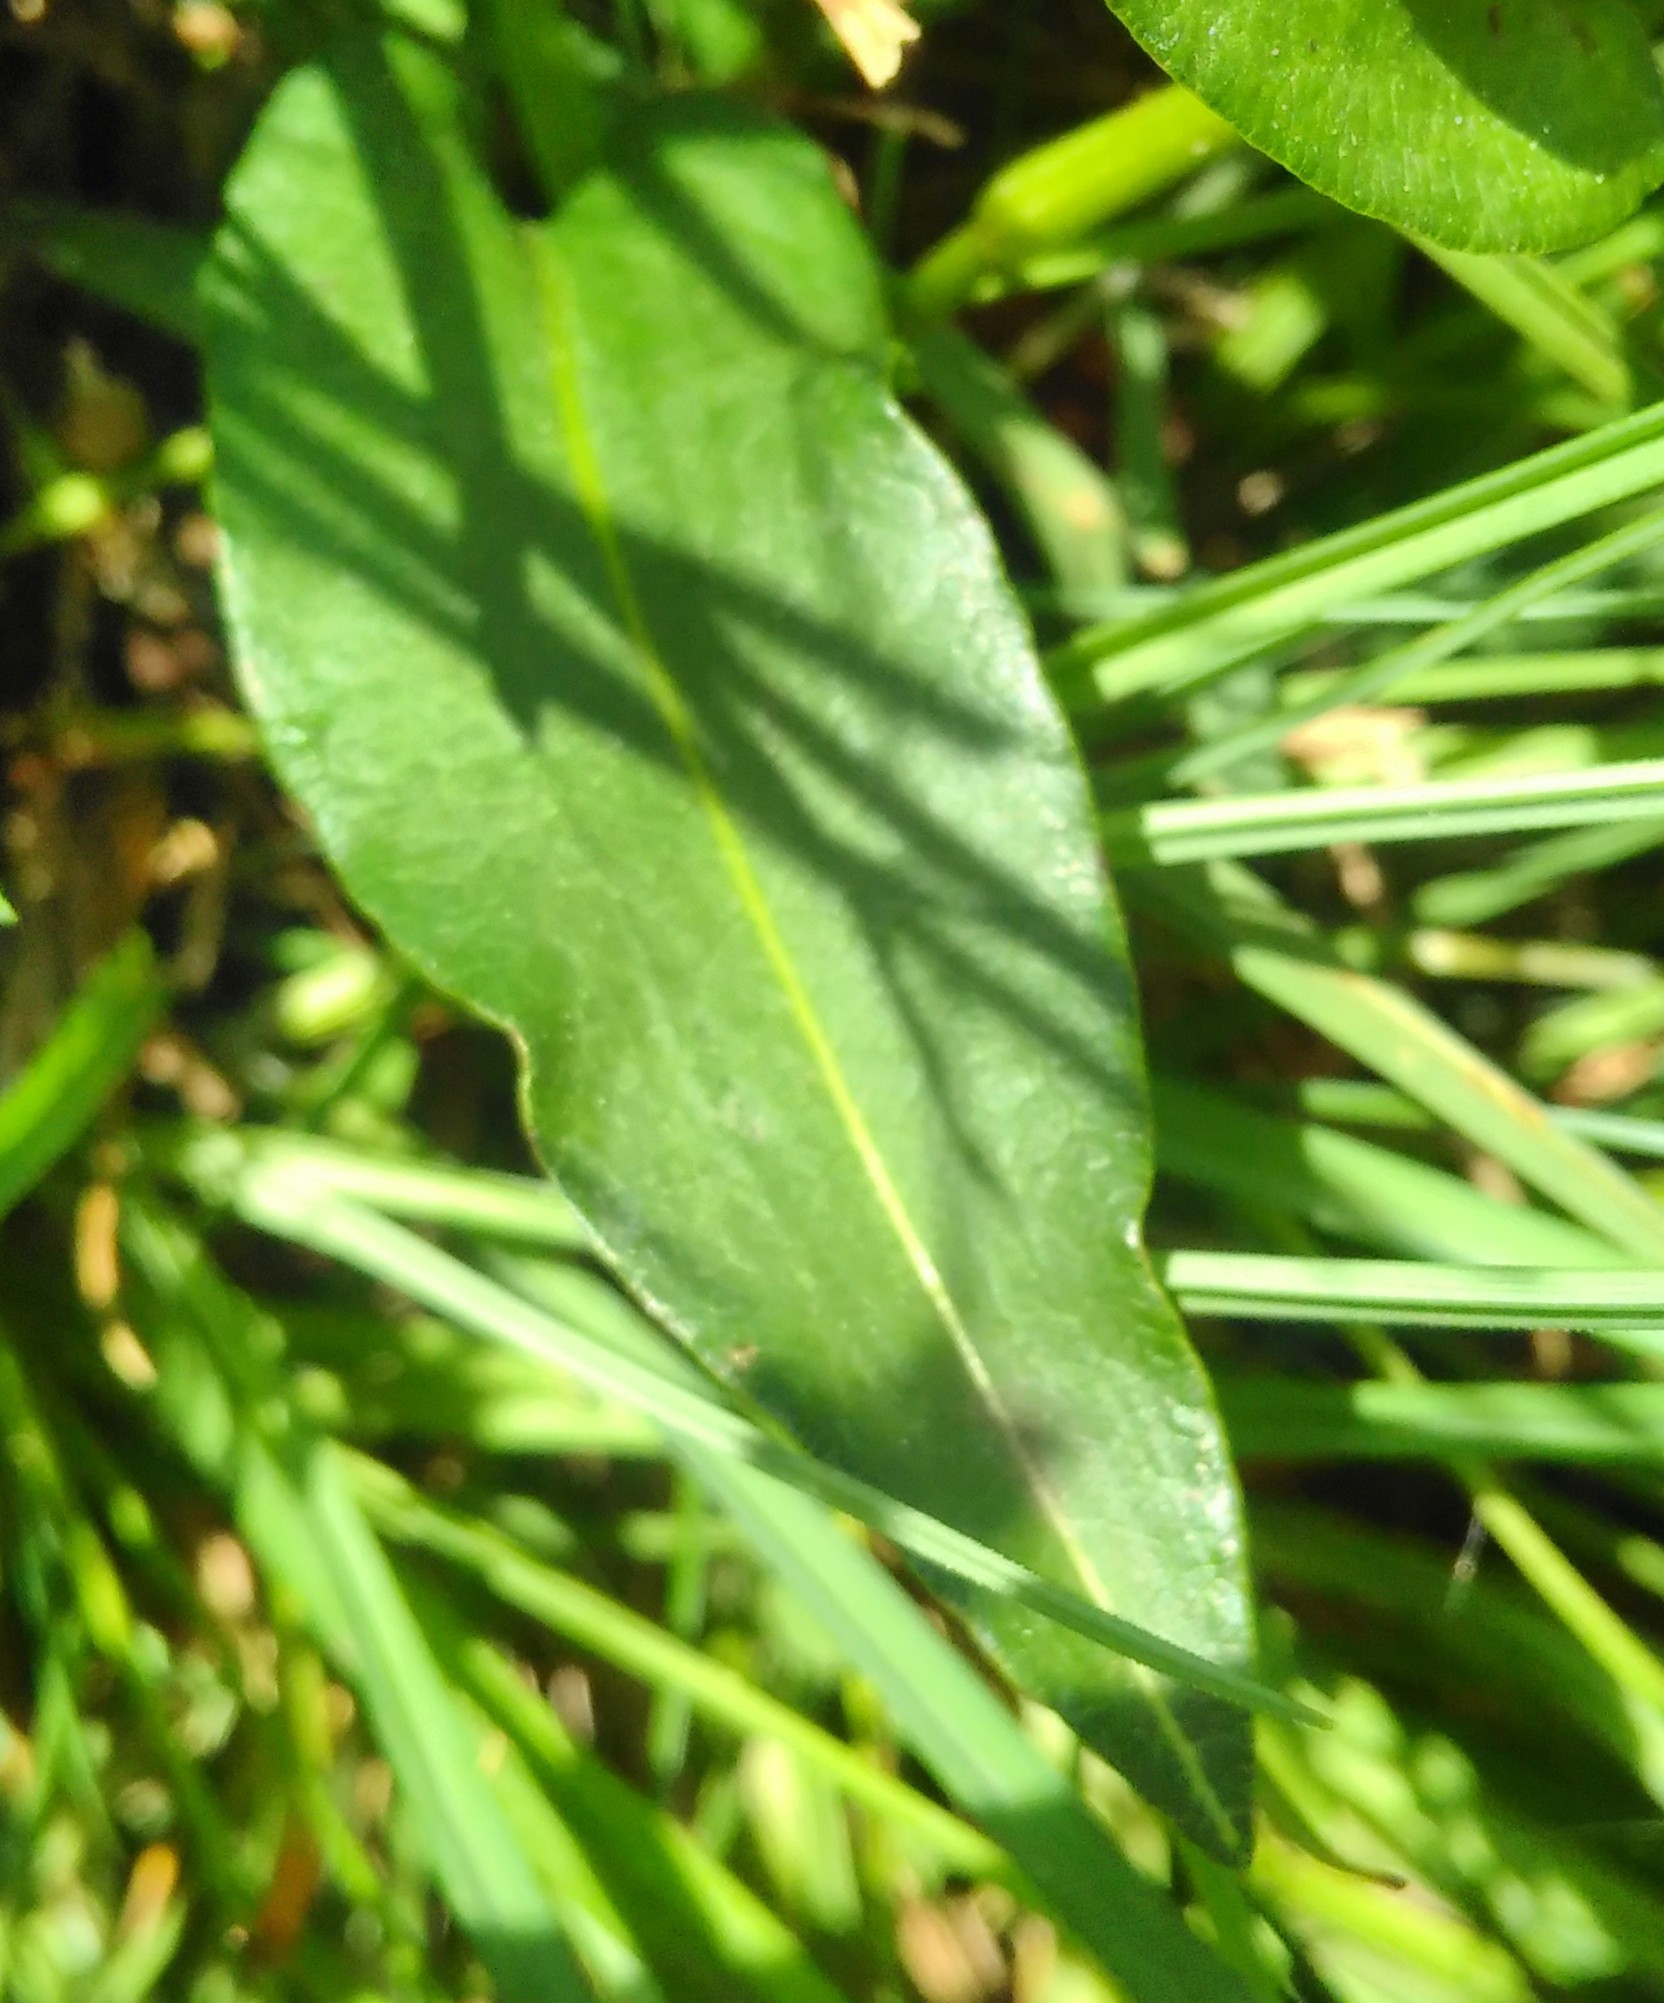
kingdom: Plantae
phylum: Tracheophyta
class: Magnoliopsida
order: Caryophyllales
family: Polygonaceae
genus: Bistorta
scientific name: Bistorta officinalis
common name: Common bistort
